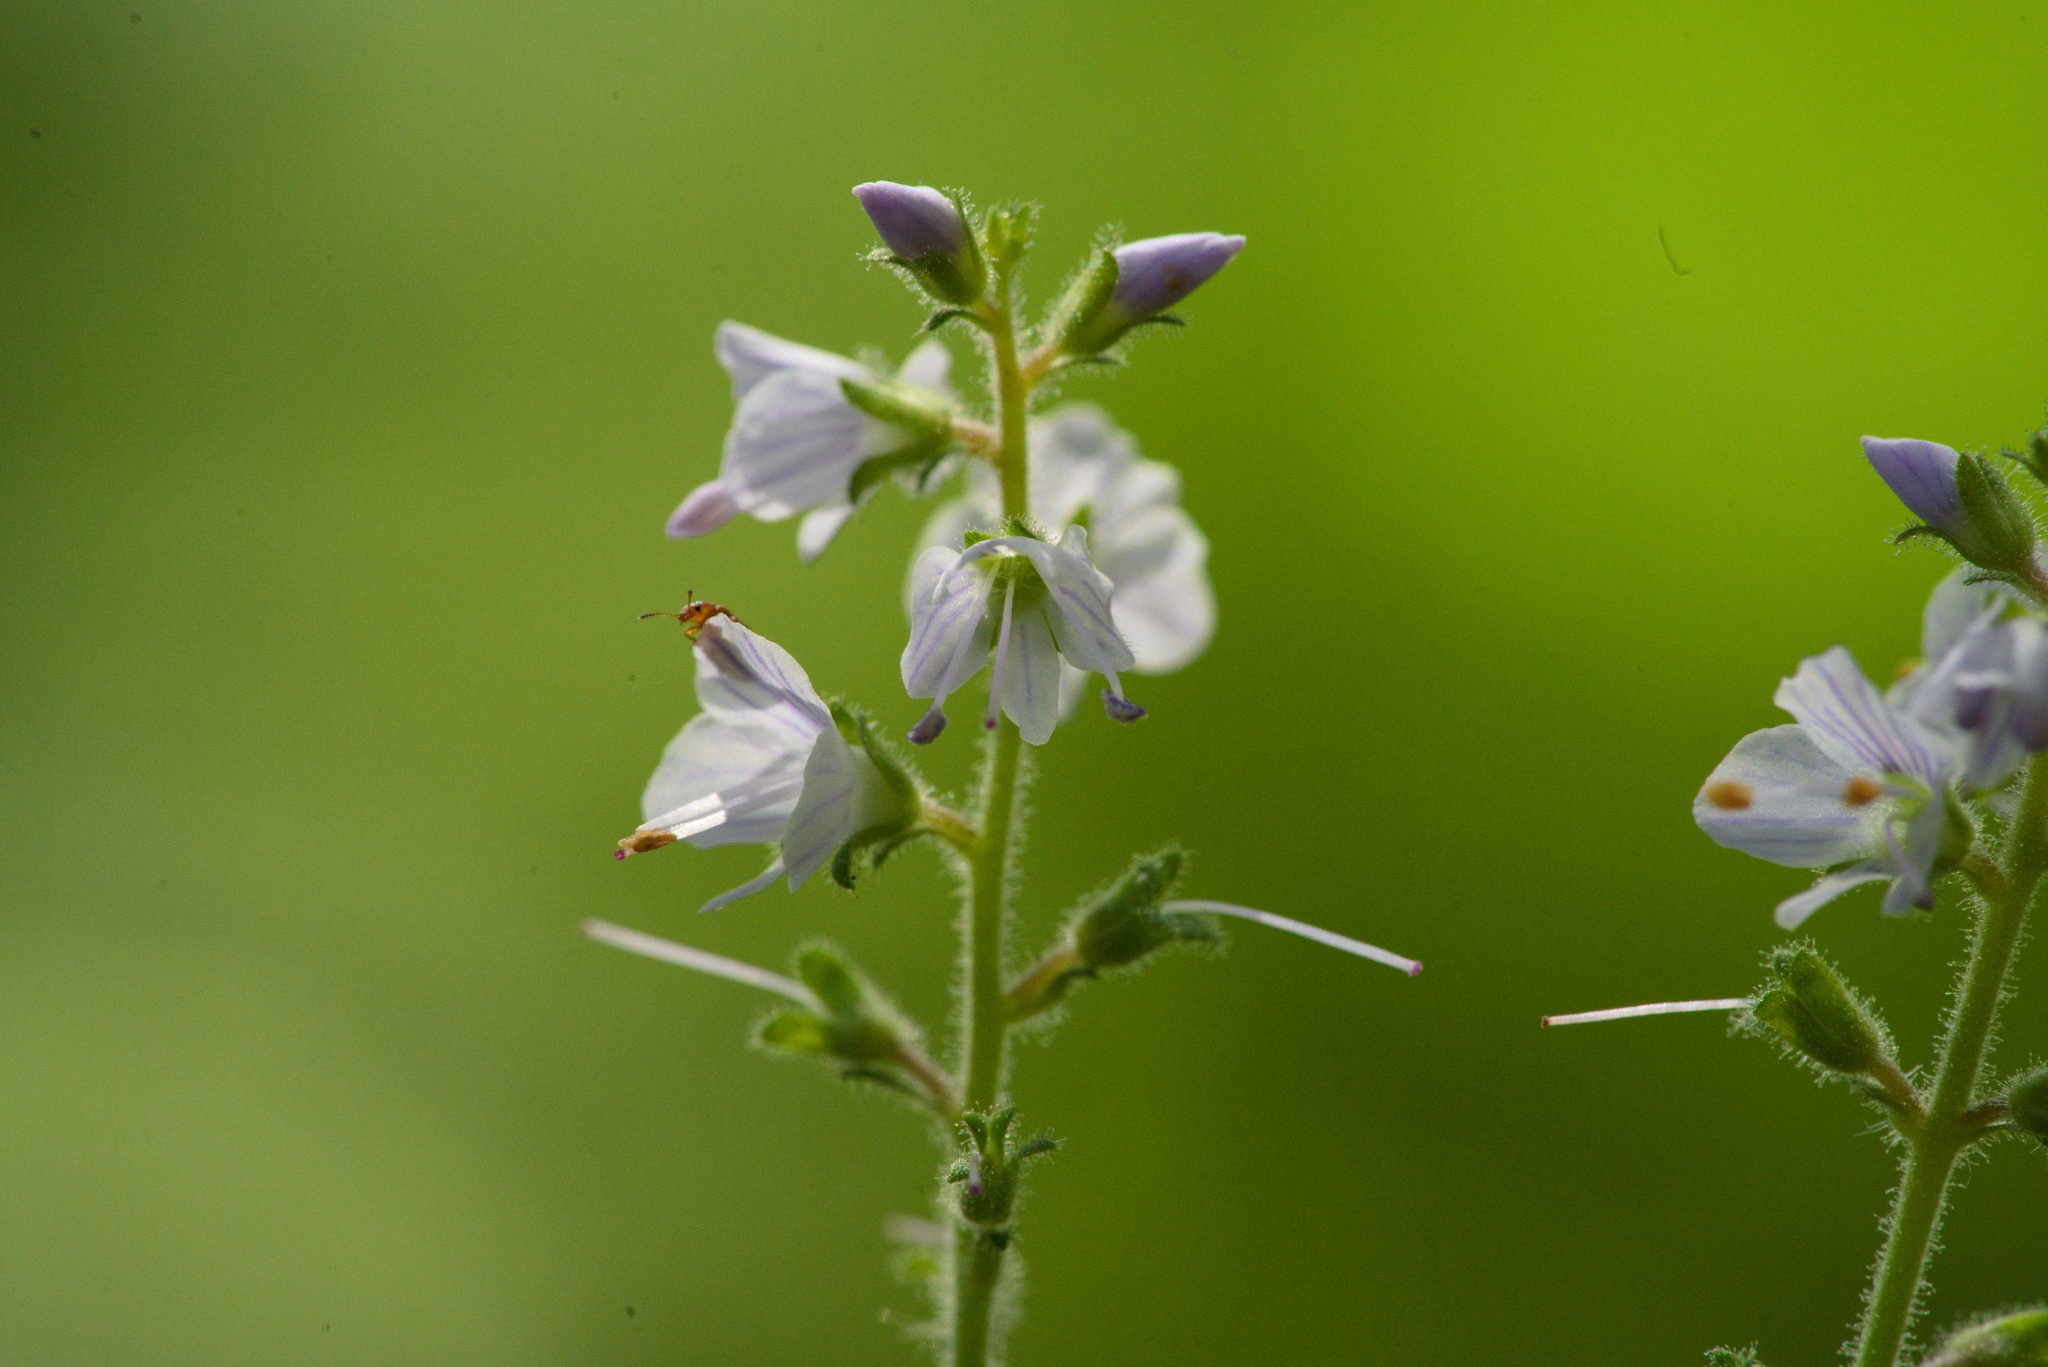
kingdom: Plantae
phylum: Tracheophyta
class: Magnoliopsida
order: Lamiales
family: Plantaginaceae
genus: Veronica
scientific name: Veronica officinalis
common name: Common speedwell
